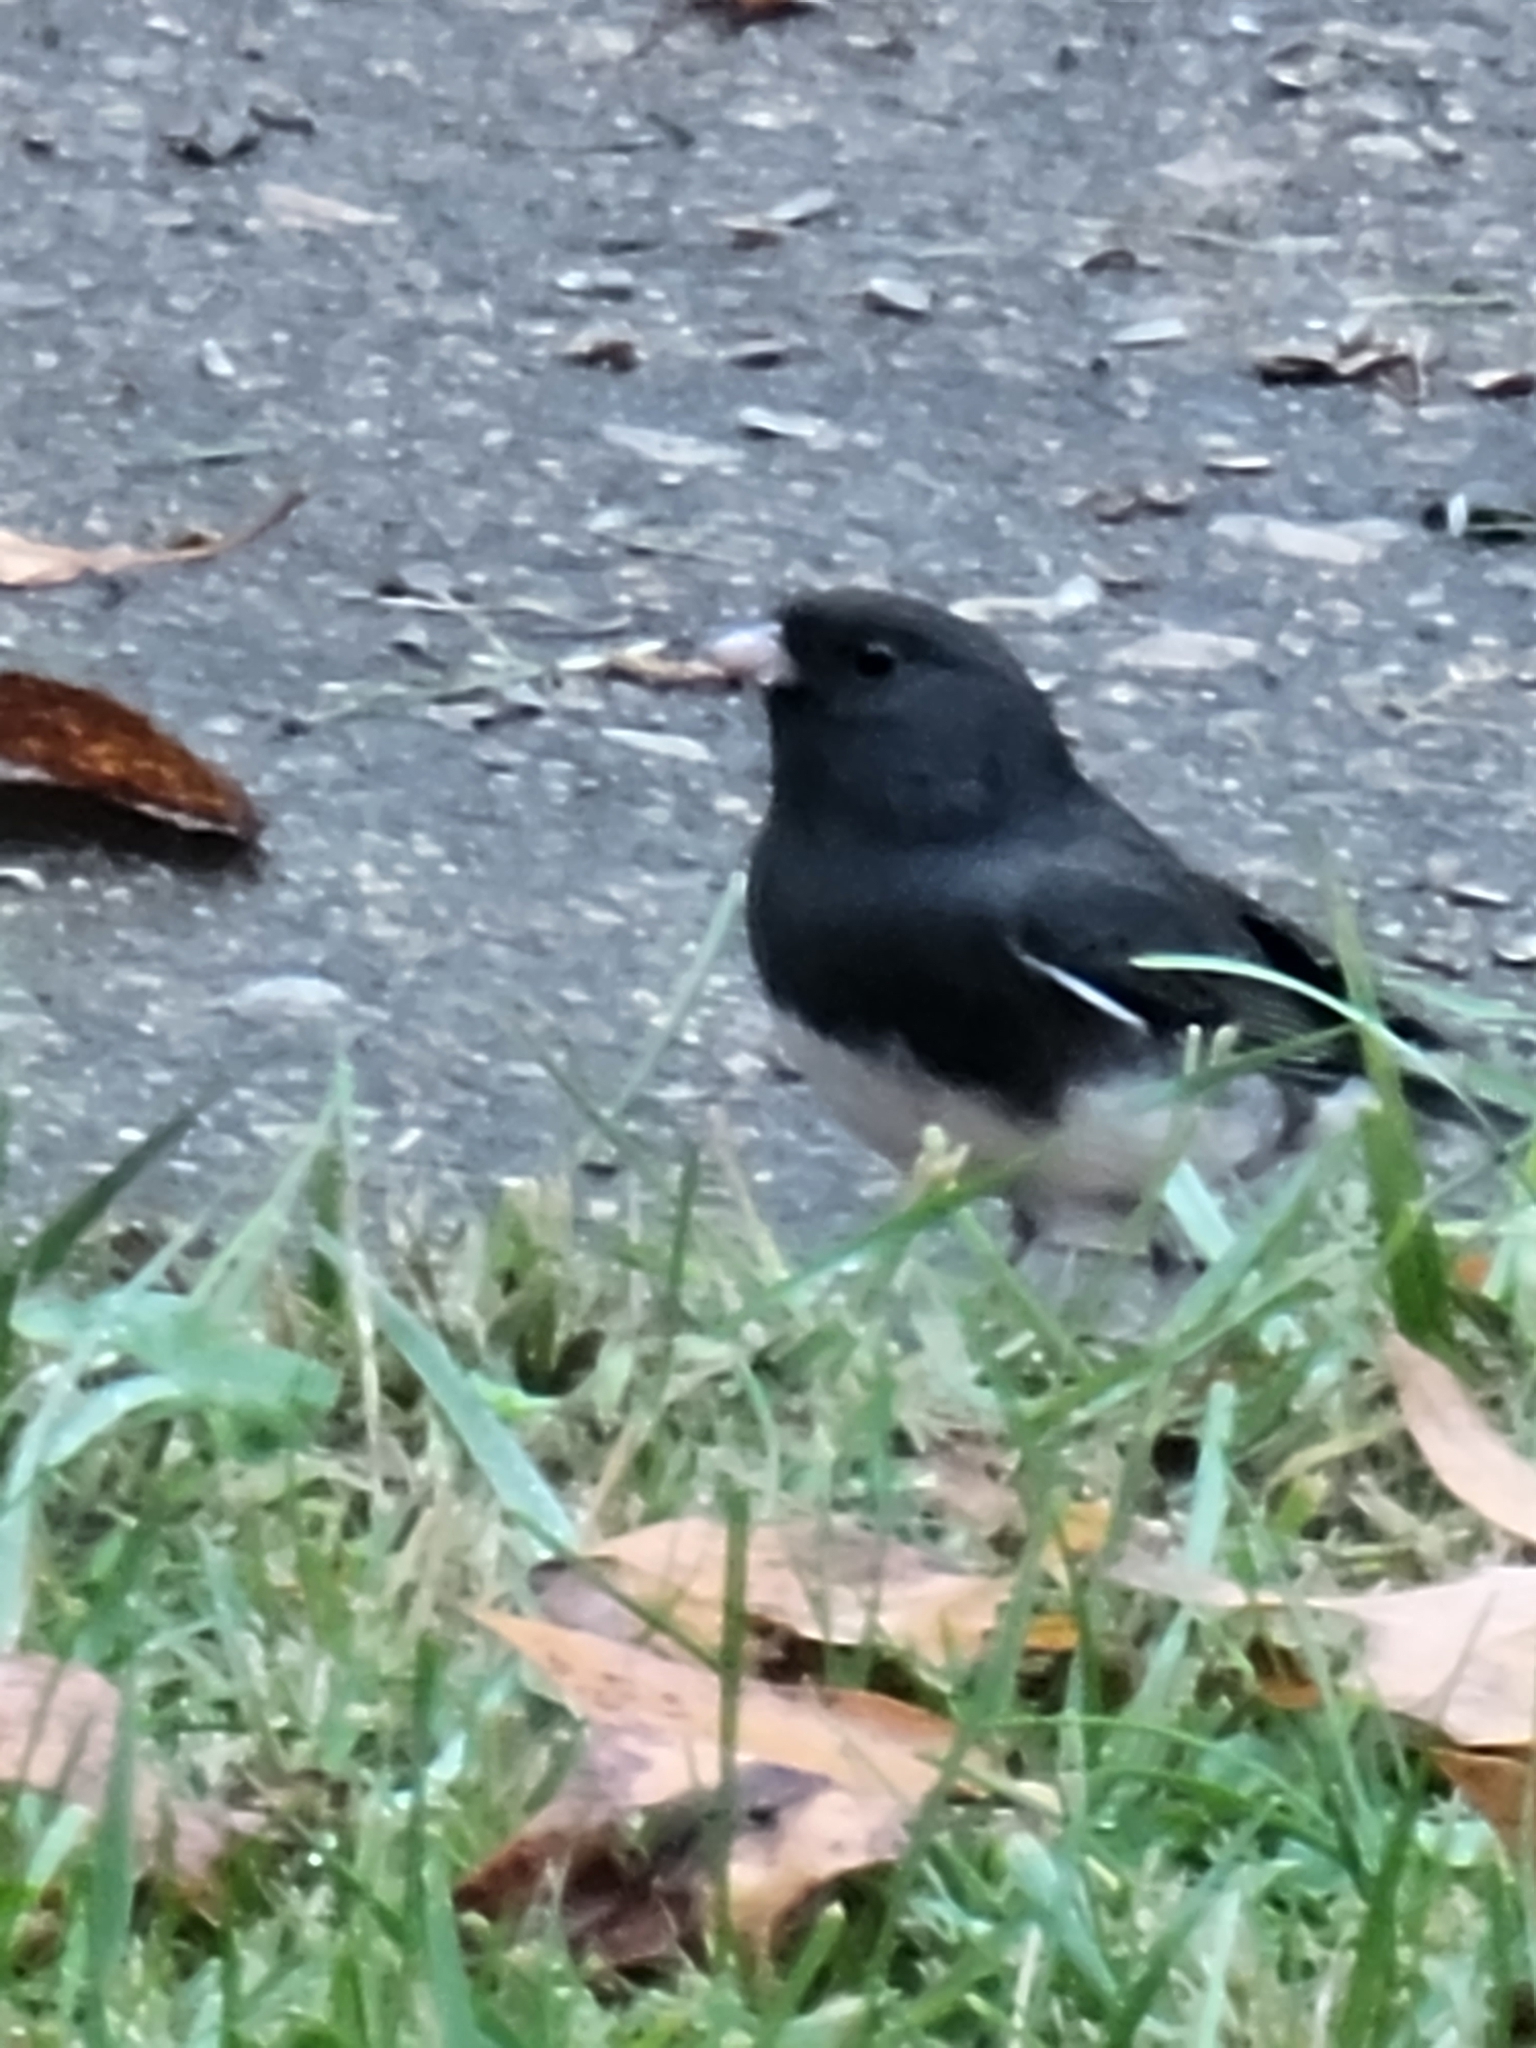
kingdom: Animalia
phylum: Chordata
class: Aves
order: Passeriformes
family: Passerellidae
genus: Junco
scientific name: Junco hyemalis
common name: Dark-eyed junco
